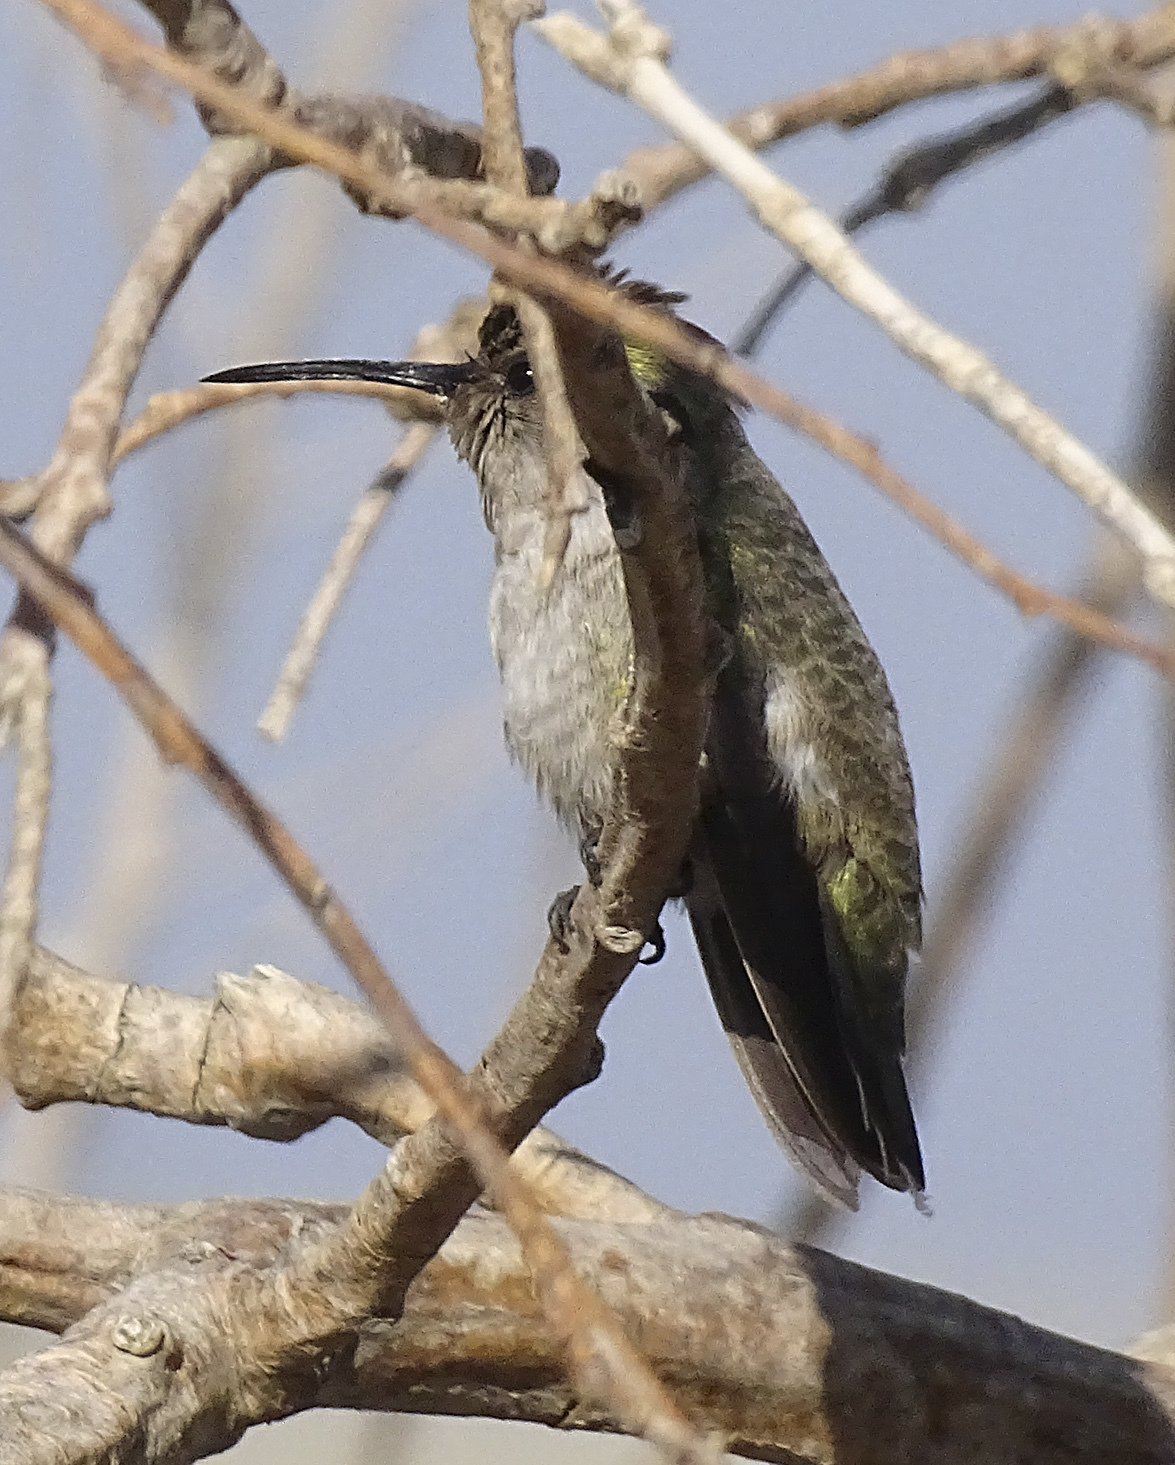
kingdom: Animalia
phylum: Chordata
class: Aves
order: Apodiformes
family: Trochilidae
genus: Calypte
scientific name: Calypte costae
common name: Costa's hummingbird
